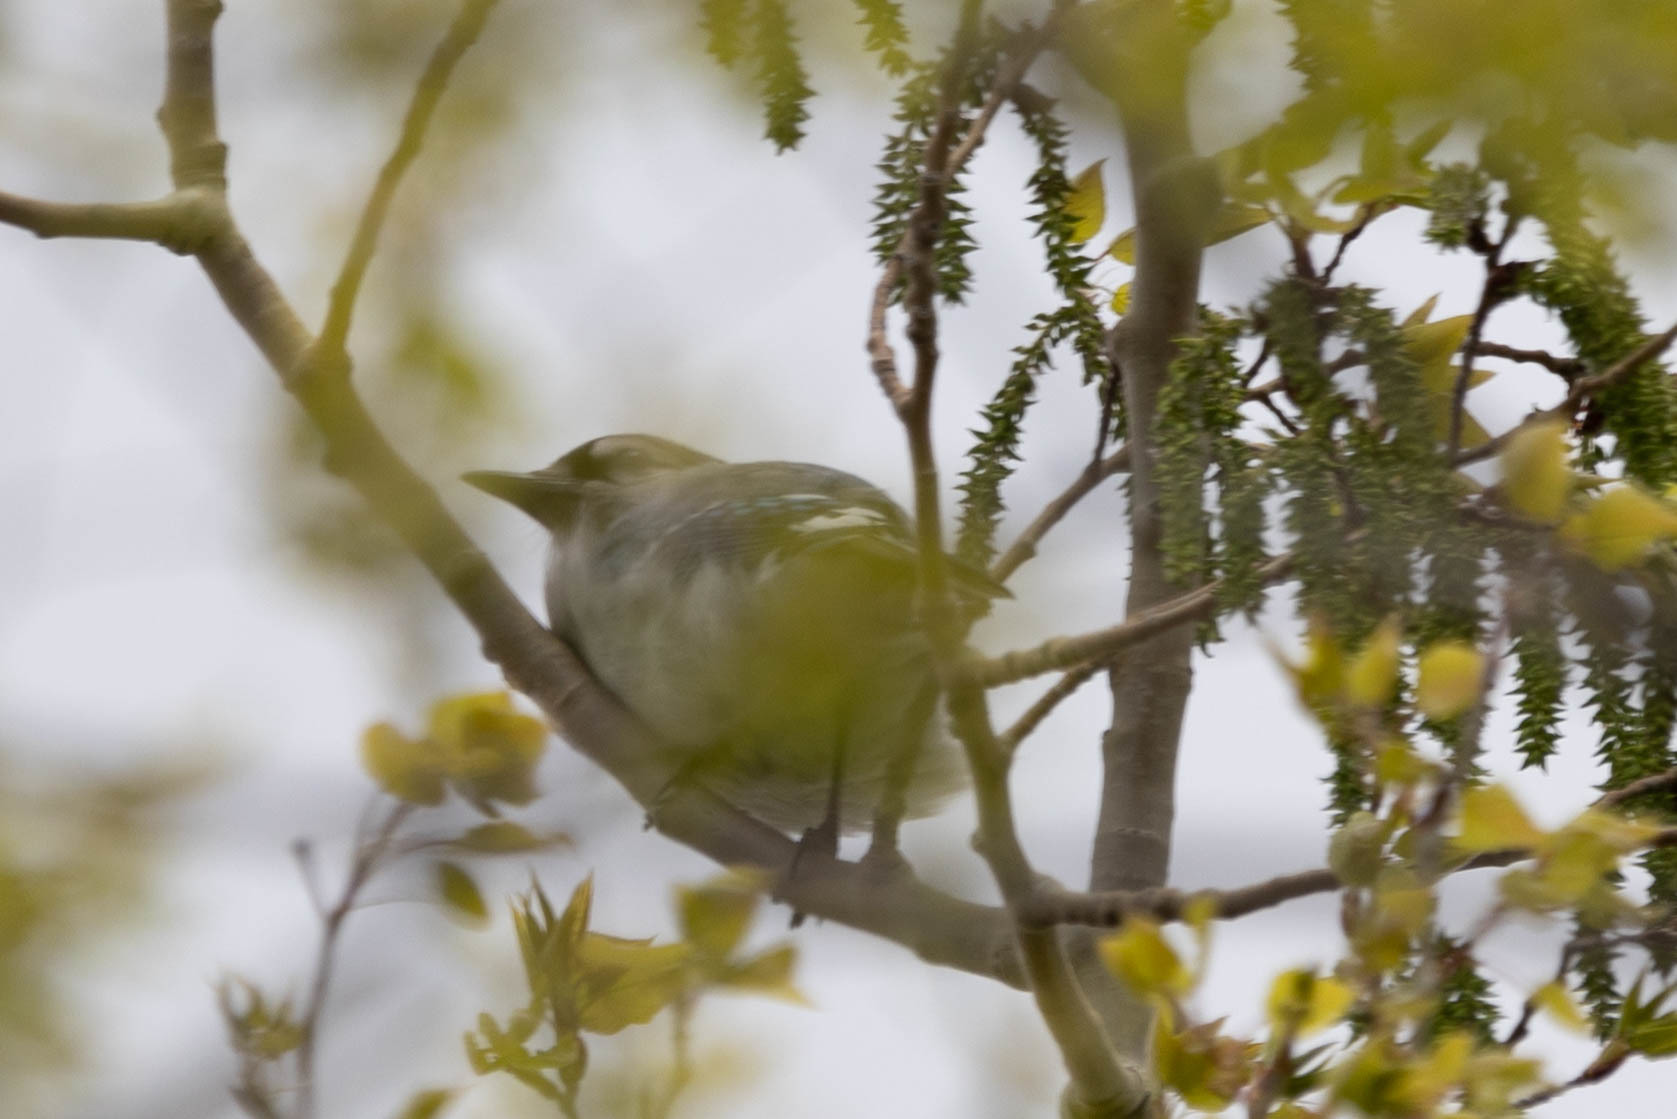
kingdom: Animalia
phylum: Chordata
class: Aves
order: Passeriformes
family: Corvidae
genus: Cyanocitta
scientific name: Cyanocitta cristata
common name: Blue jay
